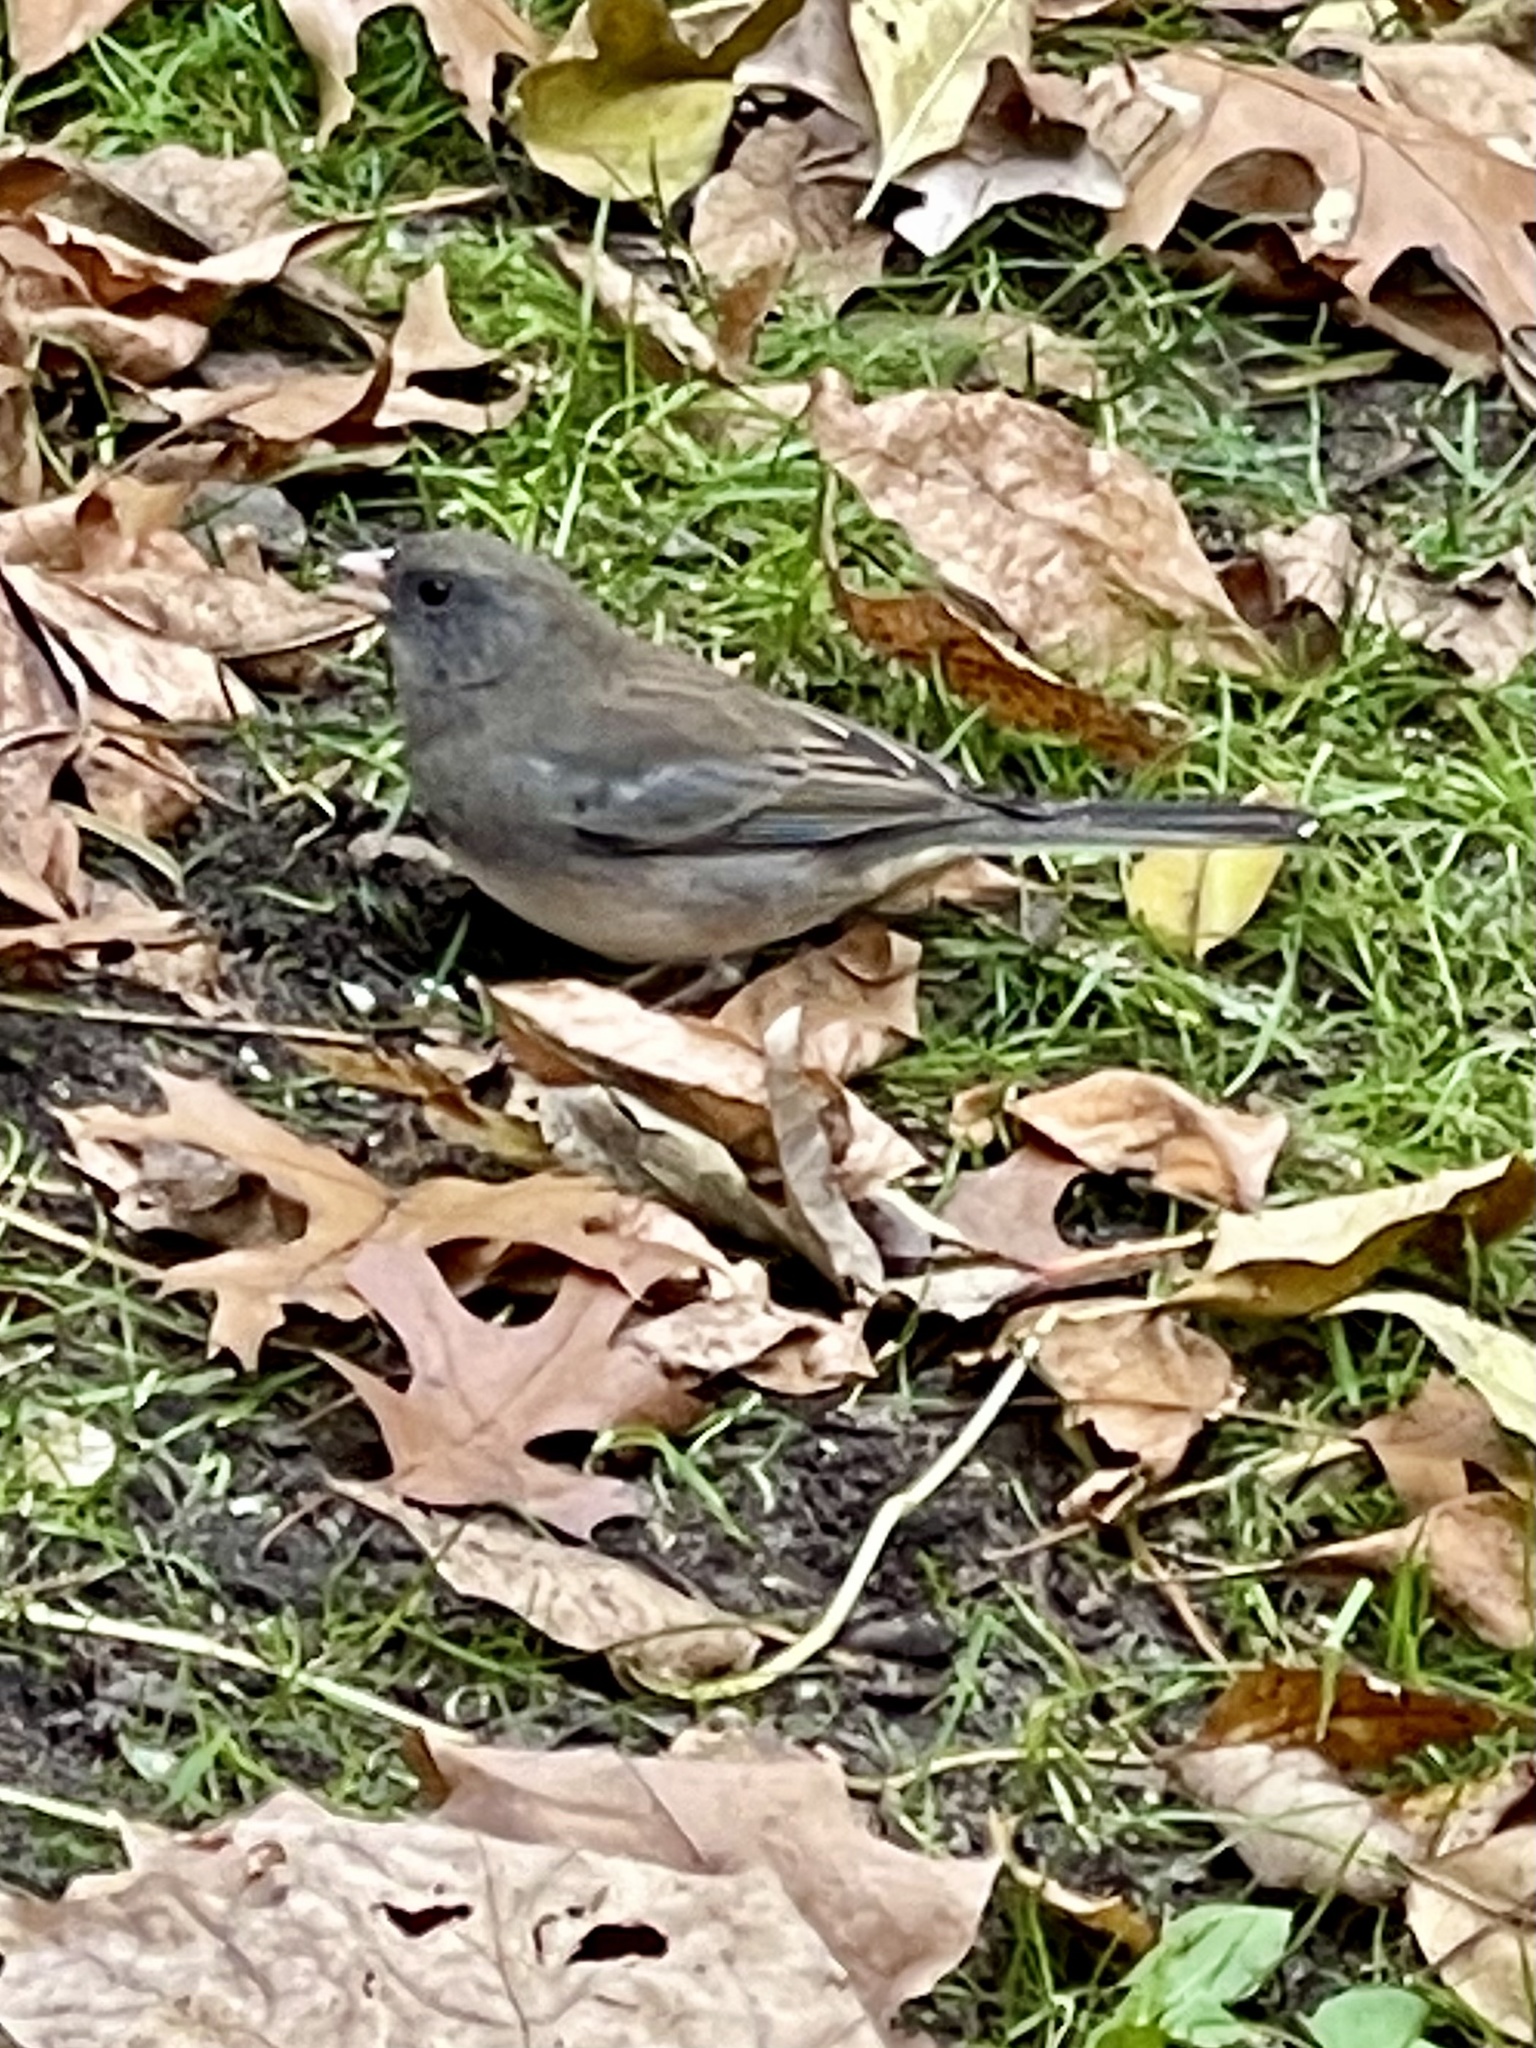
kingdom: Animalia
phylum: Chordata
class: Aves
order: Passeriformes
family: Passerellidae
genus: Junco
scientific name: Junco hyemalis
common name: Dark-eyed junco
